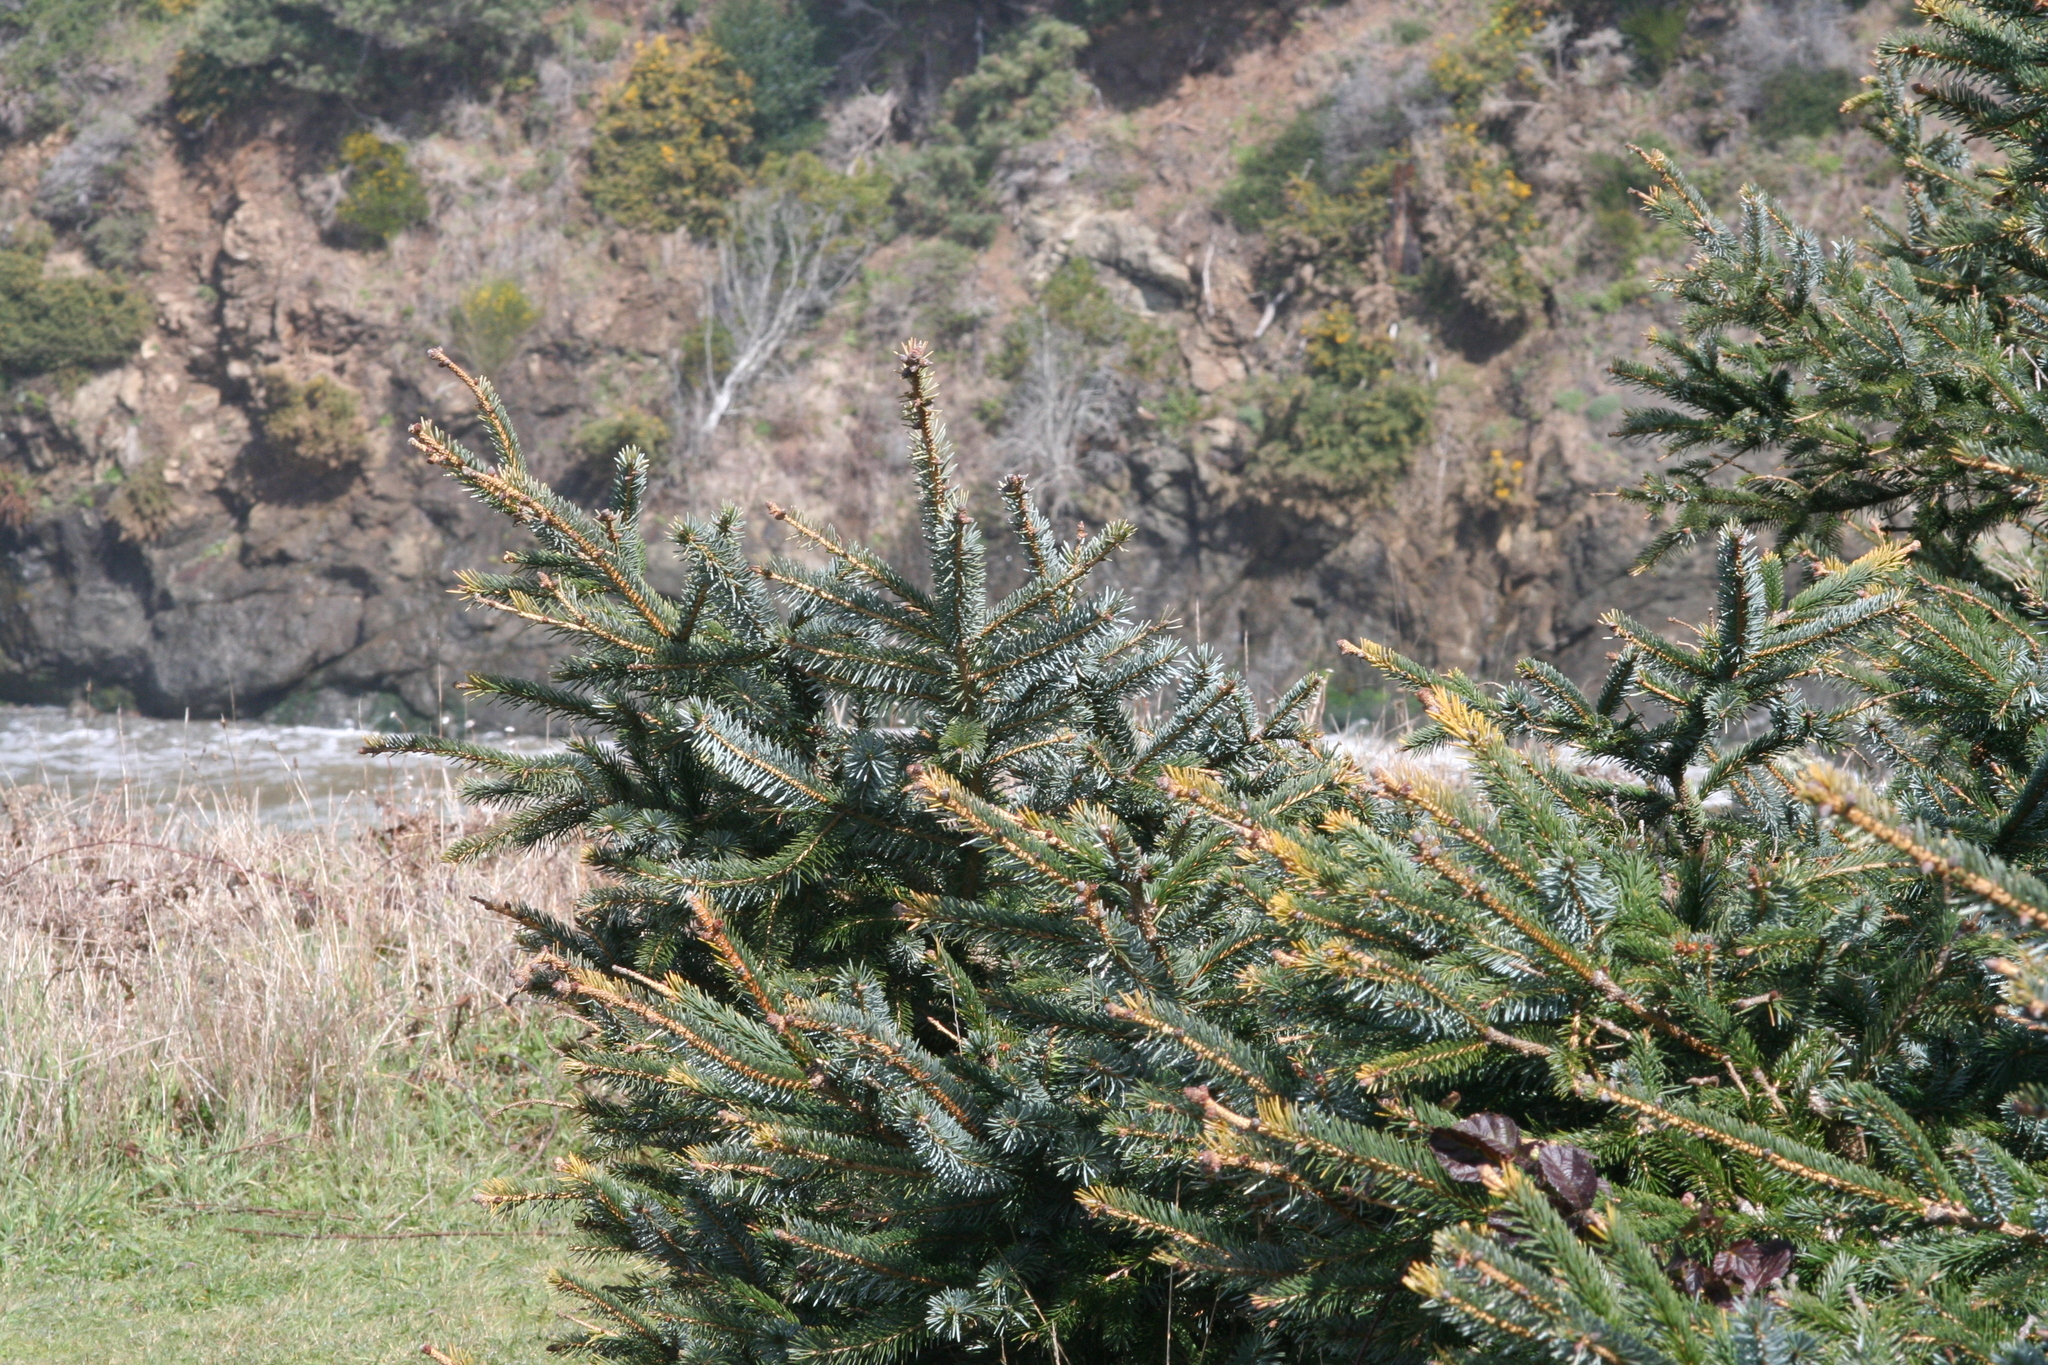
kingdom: Plantae
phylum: Tracheophyta
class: Pinopsida
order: Pinales
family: Pinaceae
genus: Picea
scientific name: Picea sitchensis
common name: Sitka spruce
